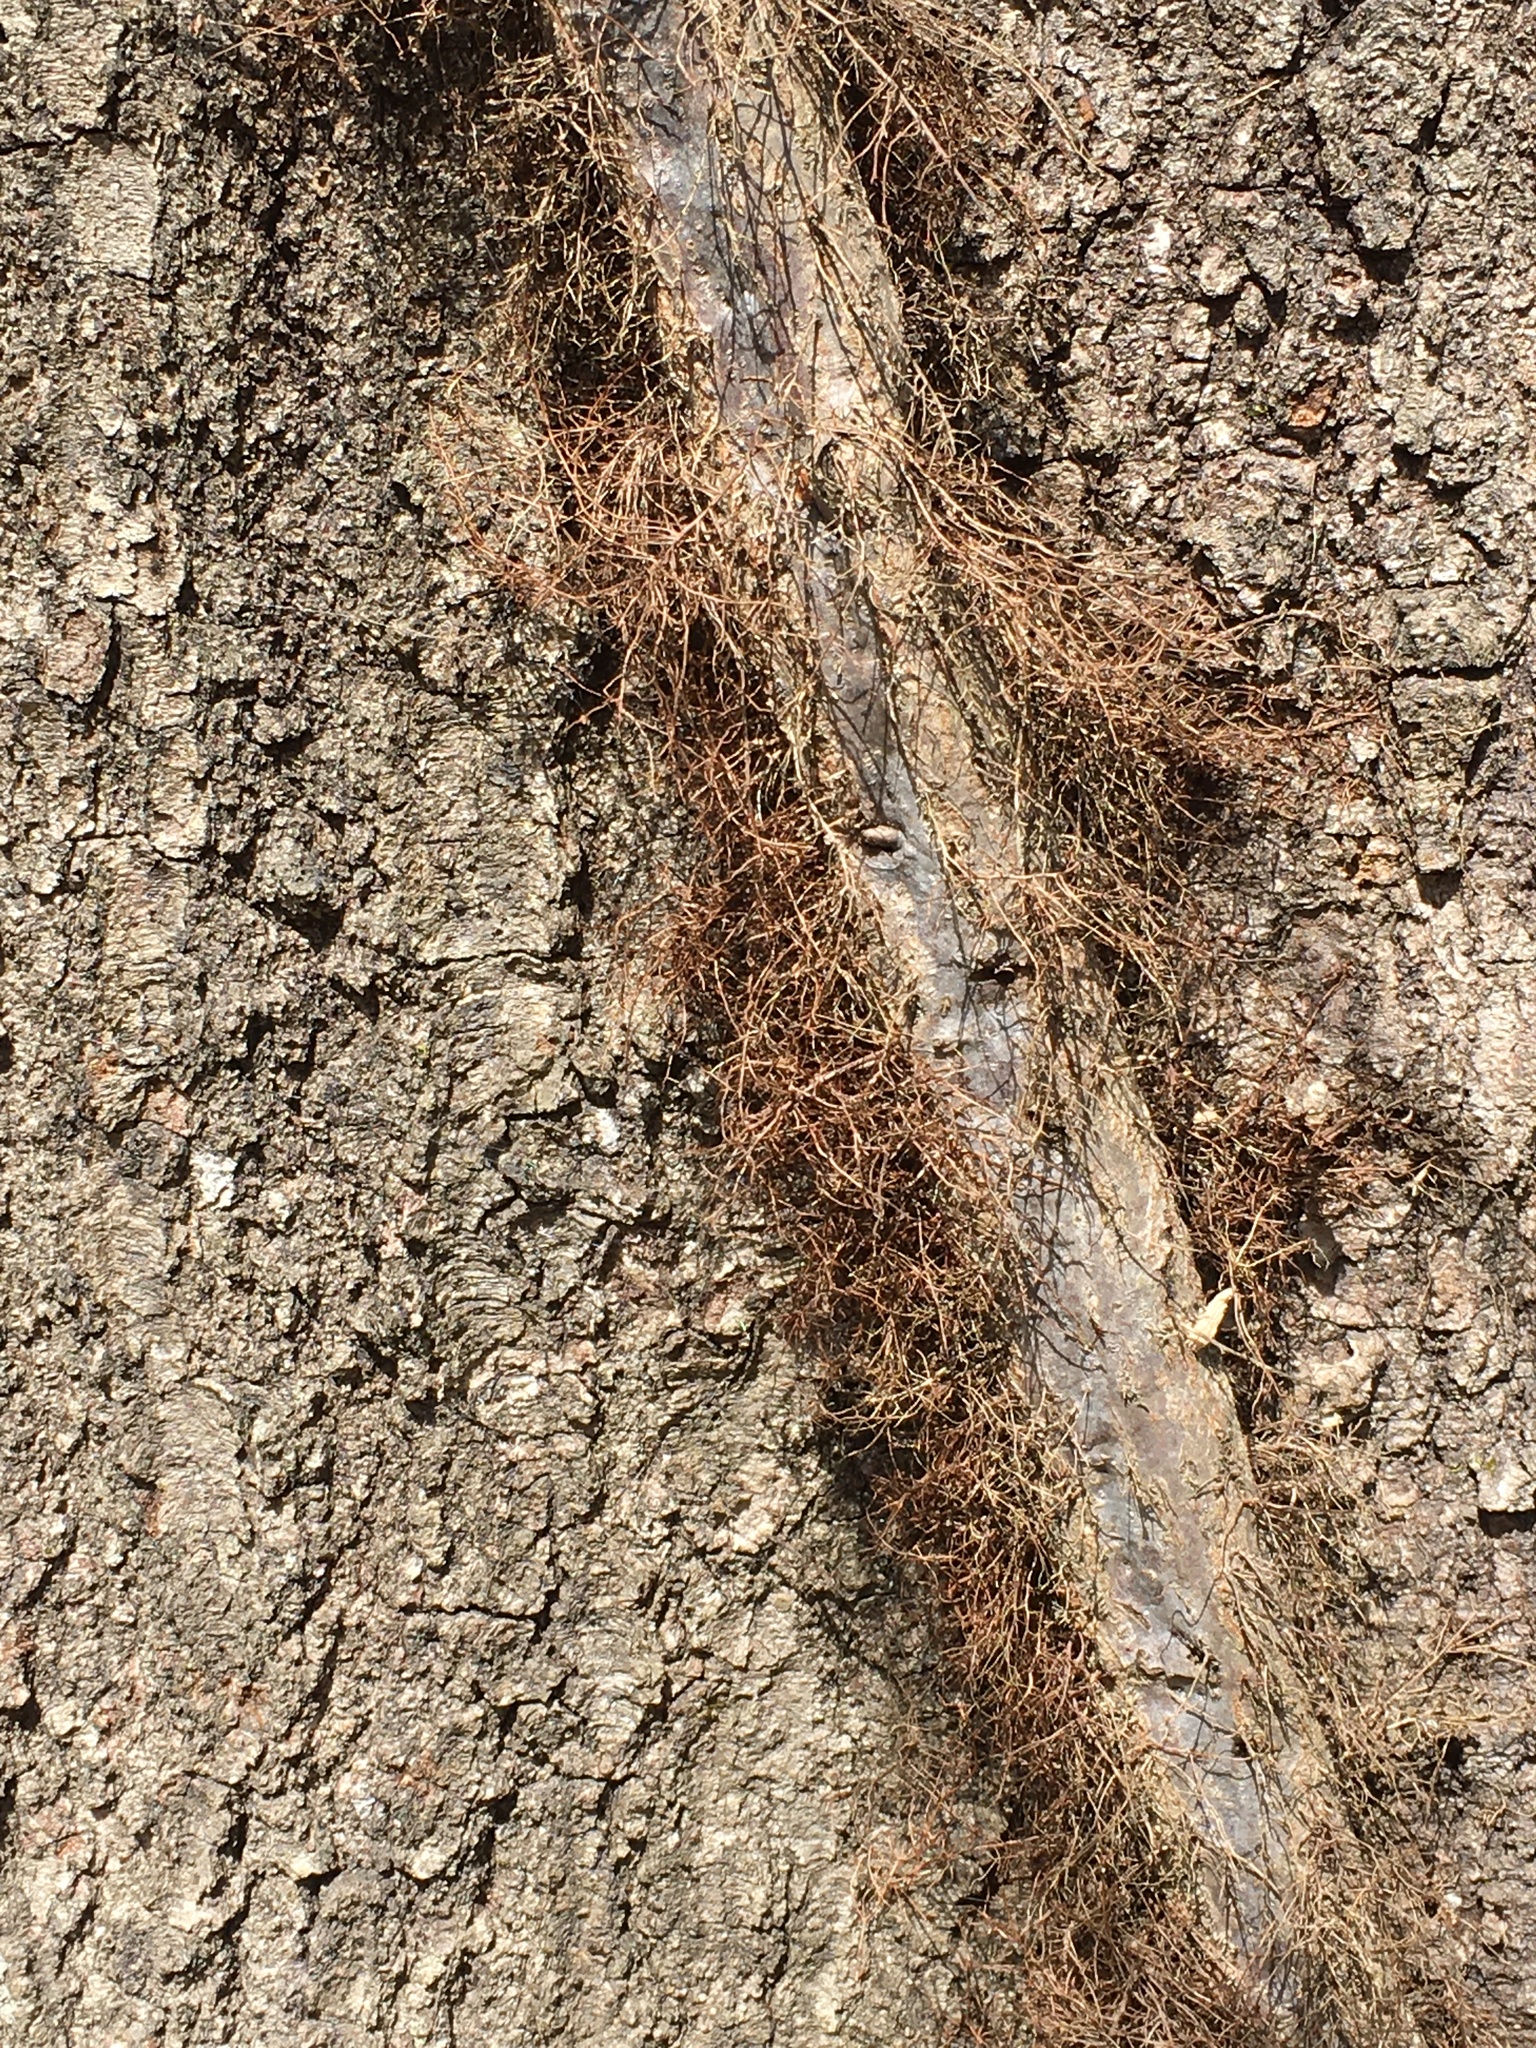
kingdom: Plantae
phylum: Tracheophyta
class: Magnoliopsida
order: Sapindales
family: Anacardiaceae
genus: Toxicodendron
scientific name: Toxicodendron radicans
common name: Poison ivy
